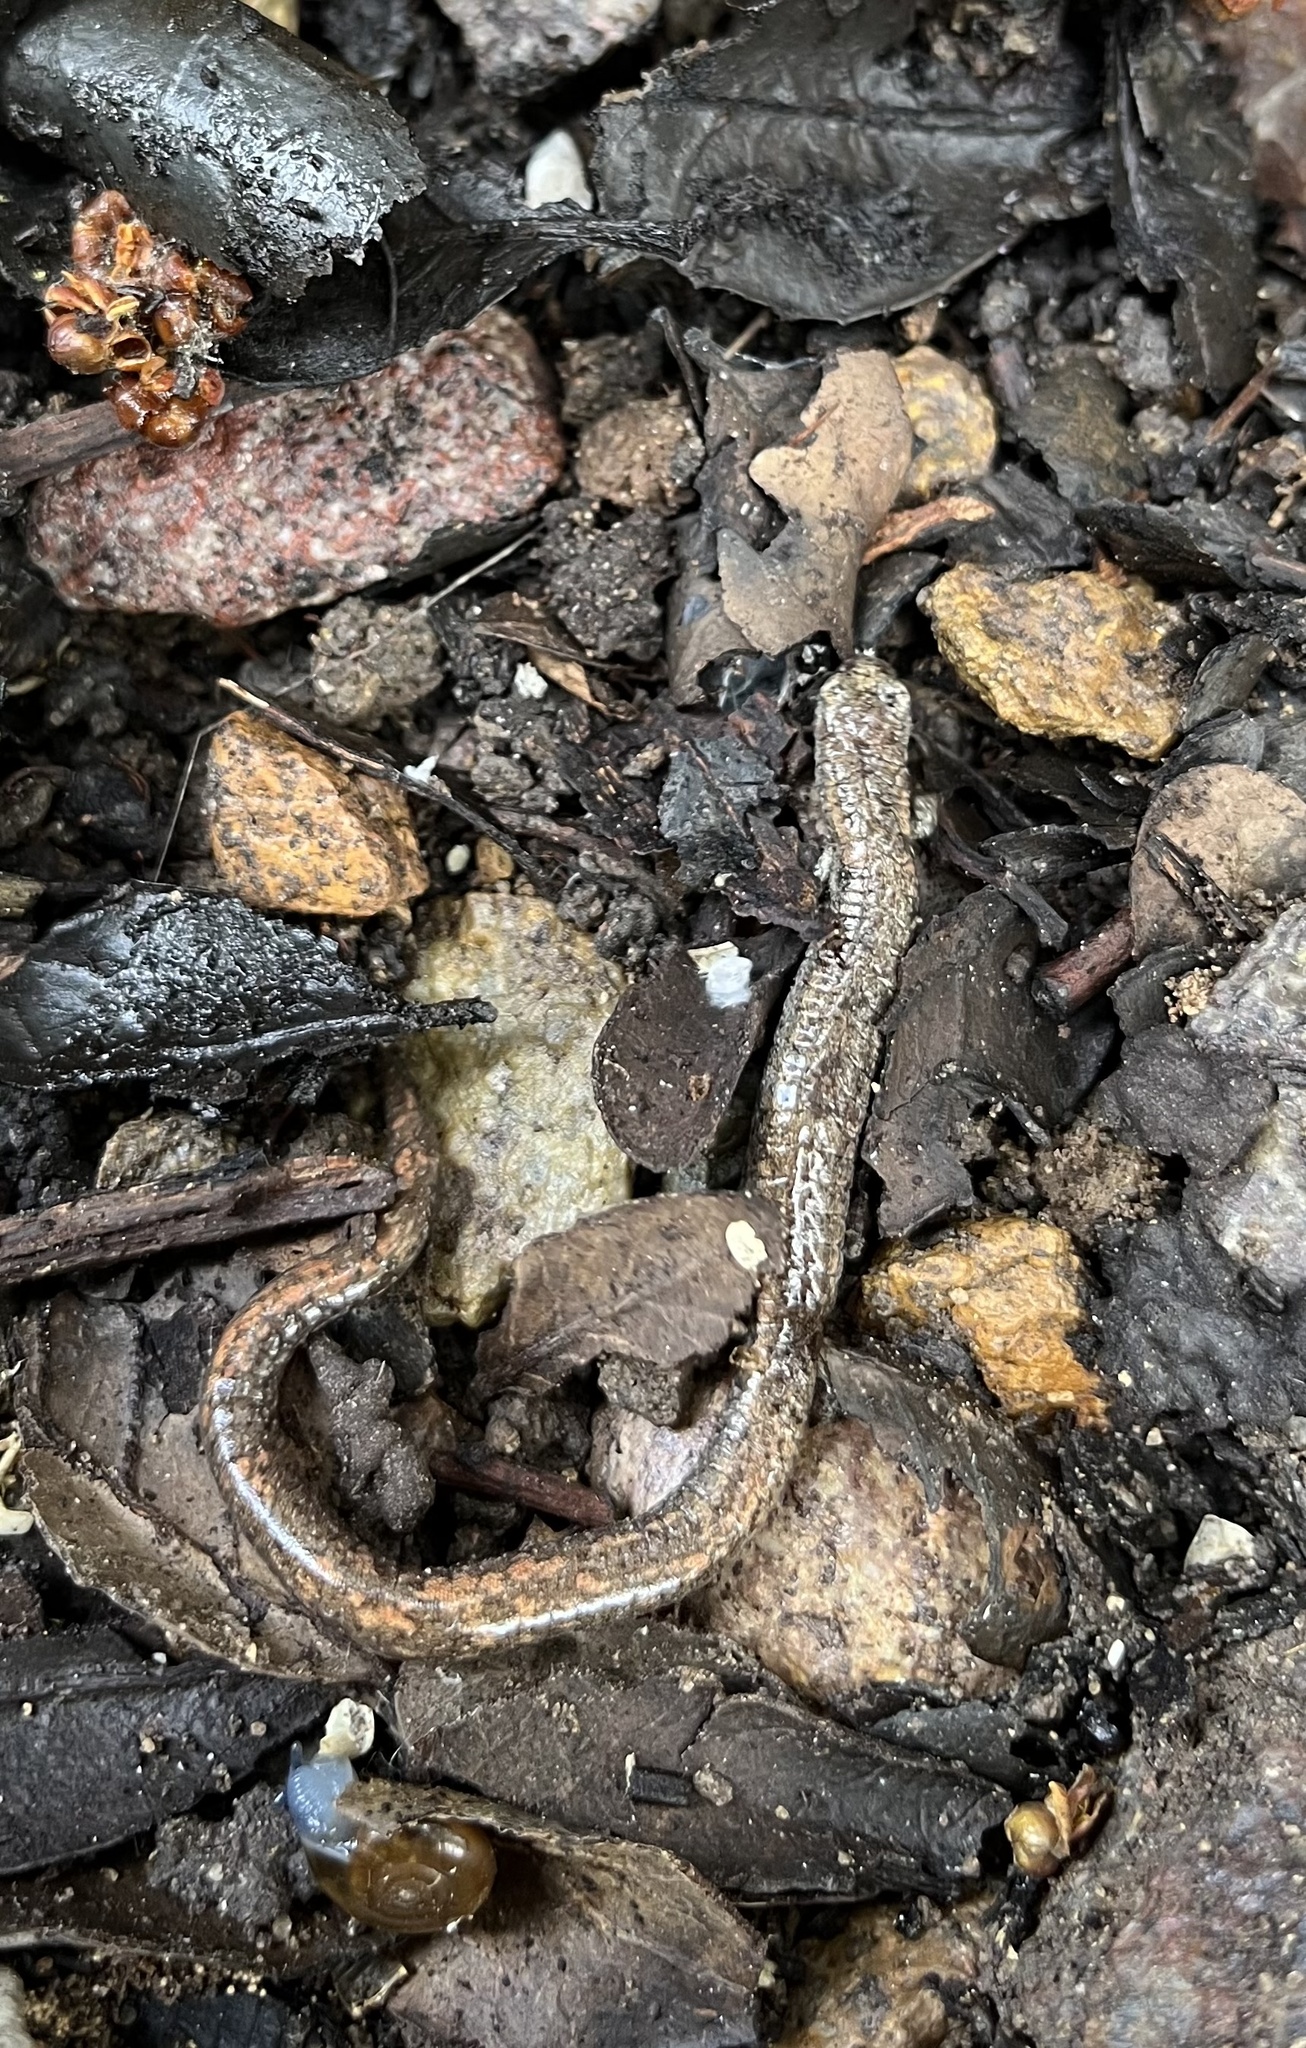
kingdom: Animalia
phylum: Chordata
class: Amphibia
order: Caudata
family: Plethodontidae
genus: Batrachoseps
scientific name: Batrachoseps major
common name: Garden slender salamander
